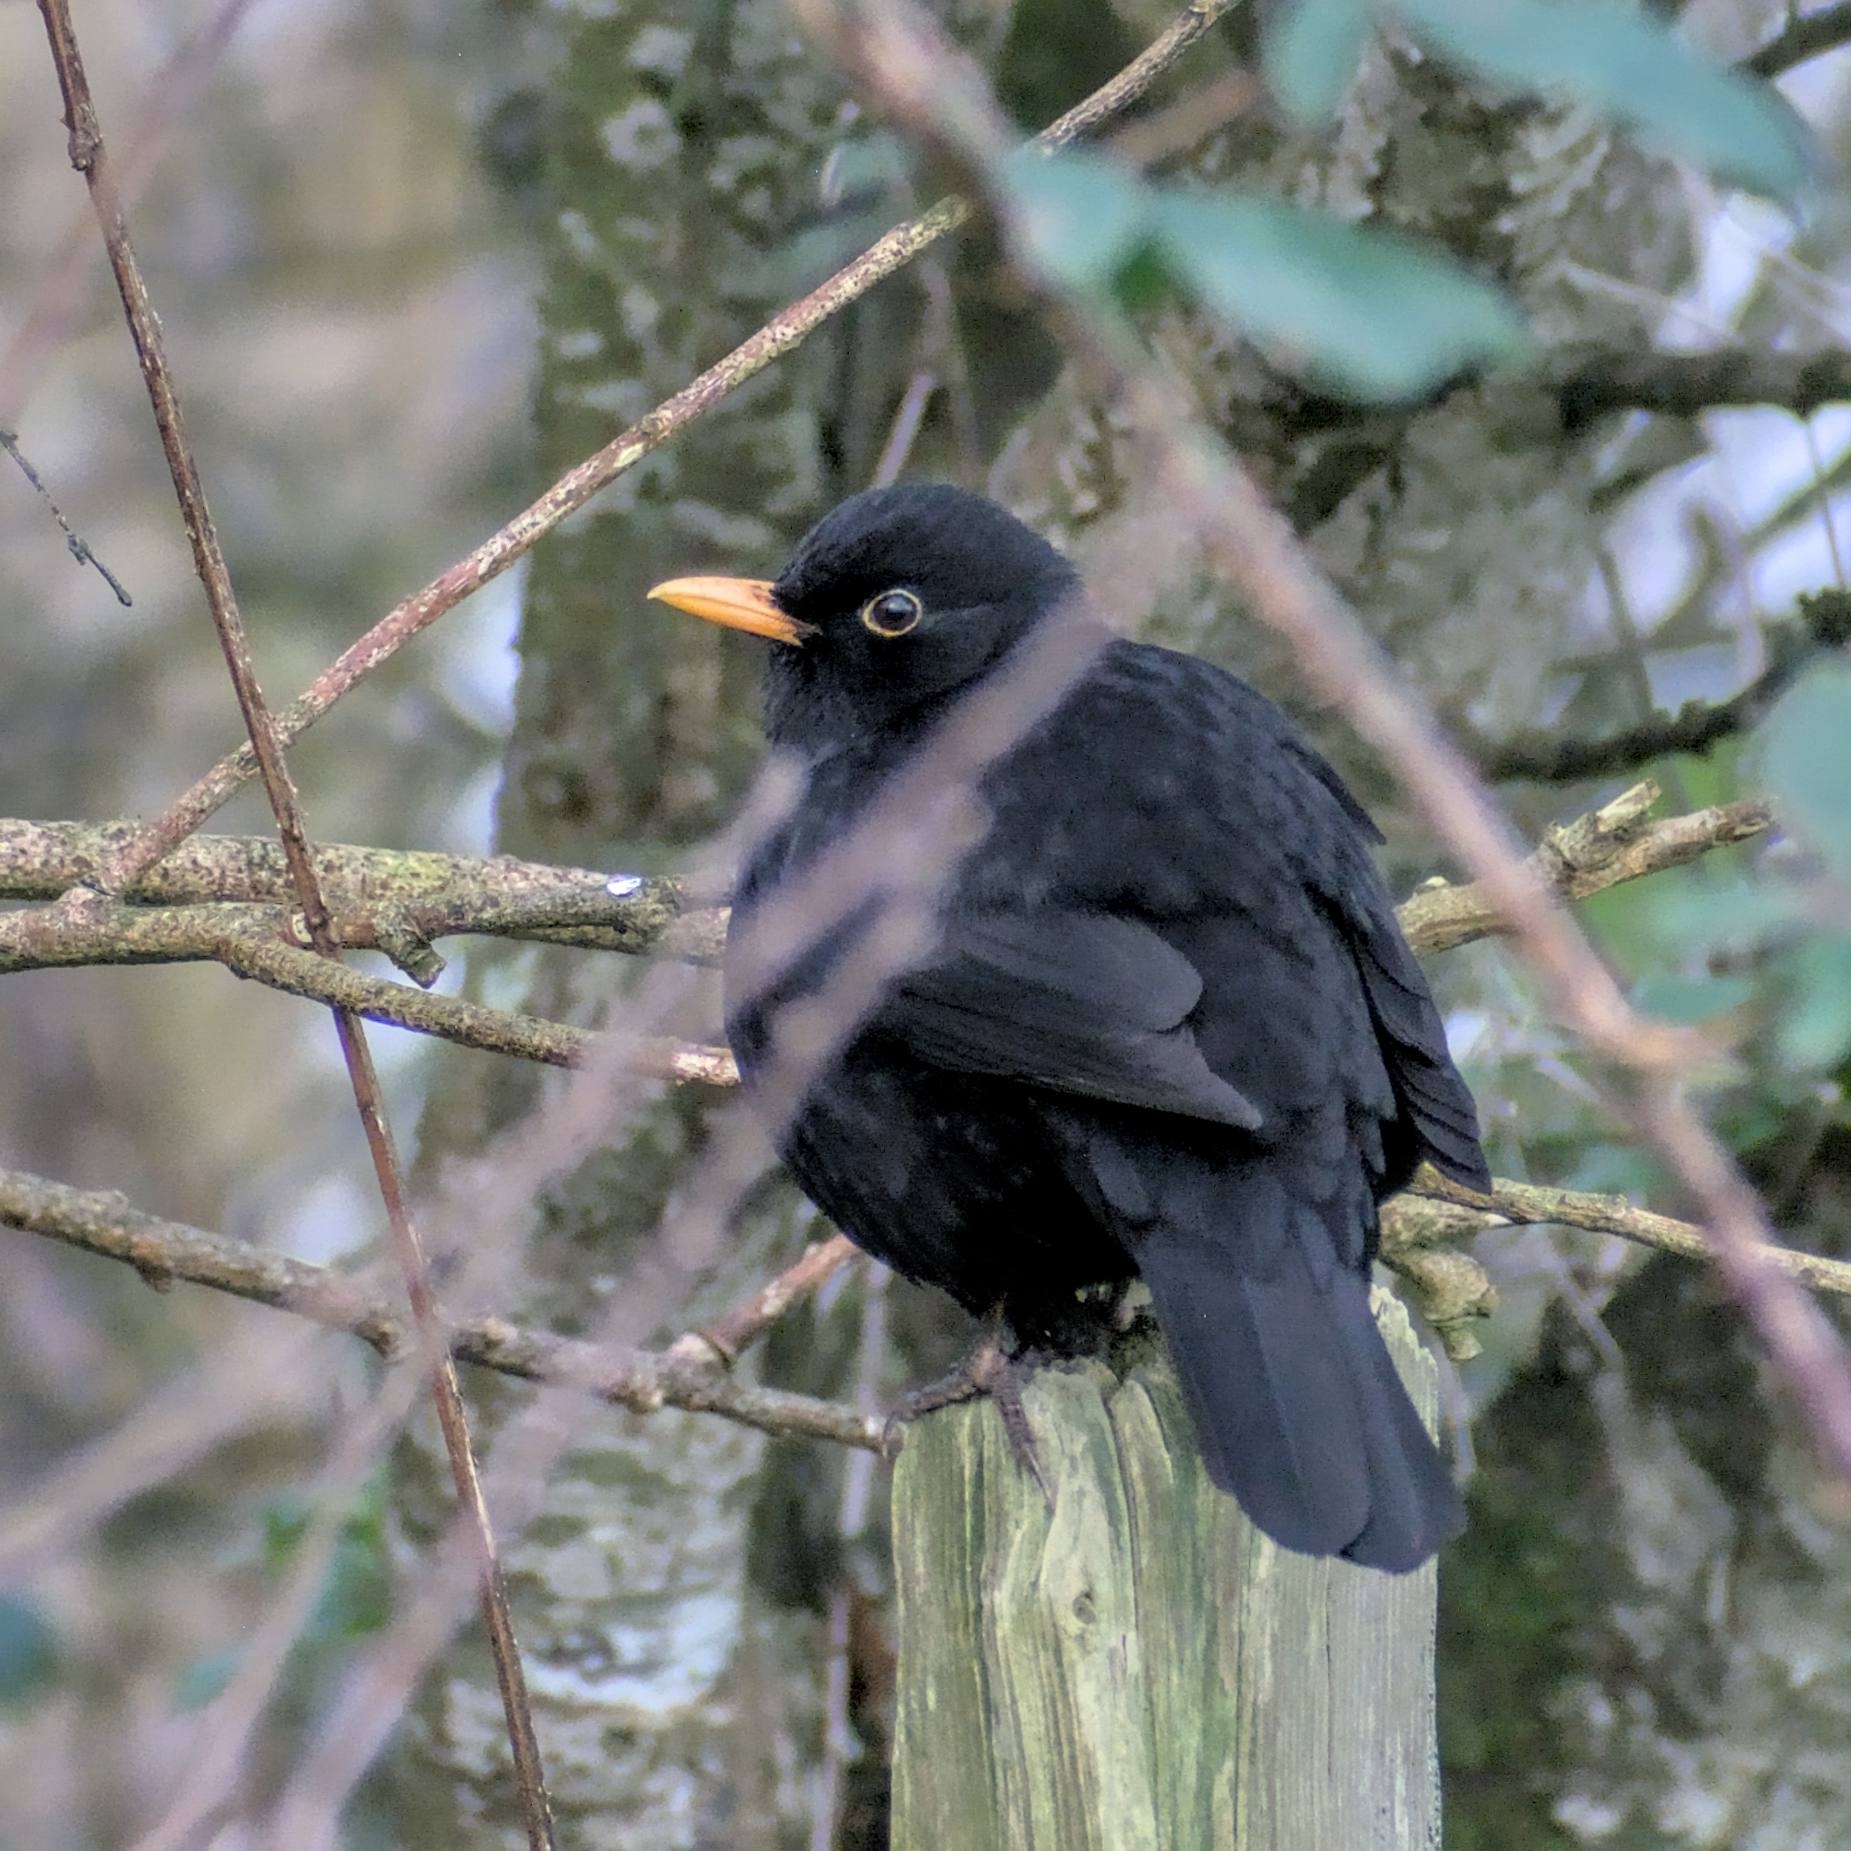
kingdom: Animalia
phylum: Chordata
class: Aves
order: Passeriformes
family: Turdidae
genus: Turdus
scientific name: Turdus merula
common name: Common blackbird
